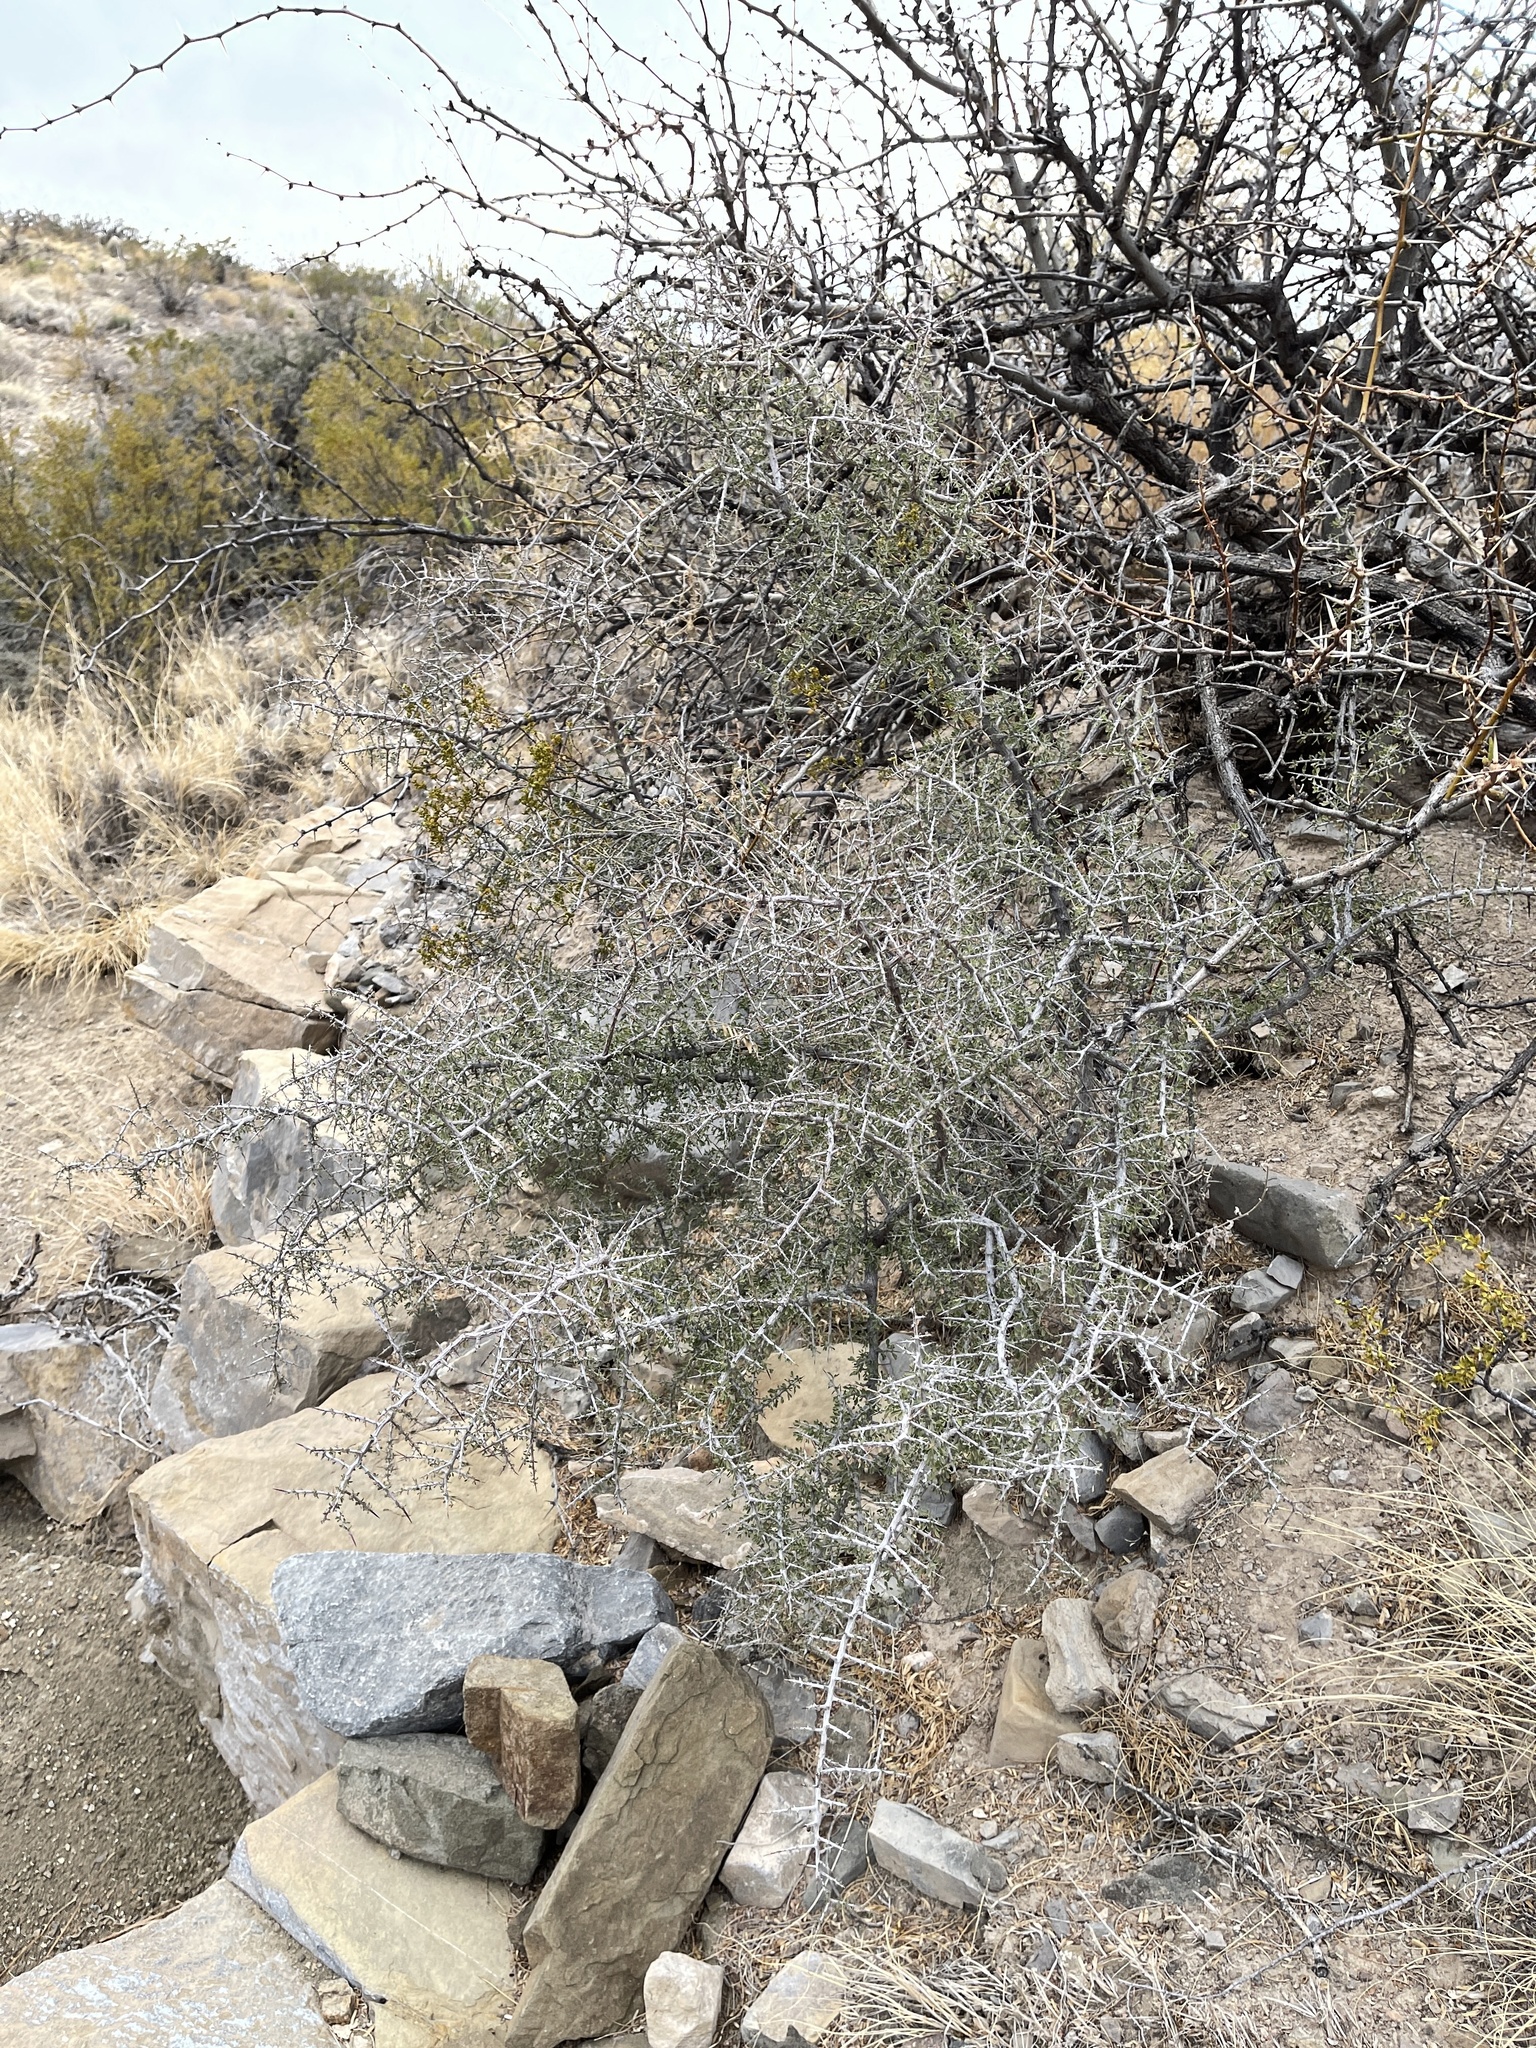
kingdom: Plantae
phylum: Tracheophyta
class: Magnoliopsida
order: Rosales
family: Rhamnaceae
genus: Condalia
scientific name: Condalia warnockii
